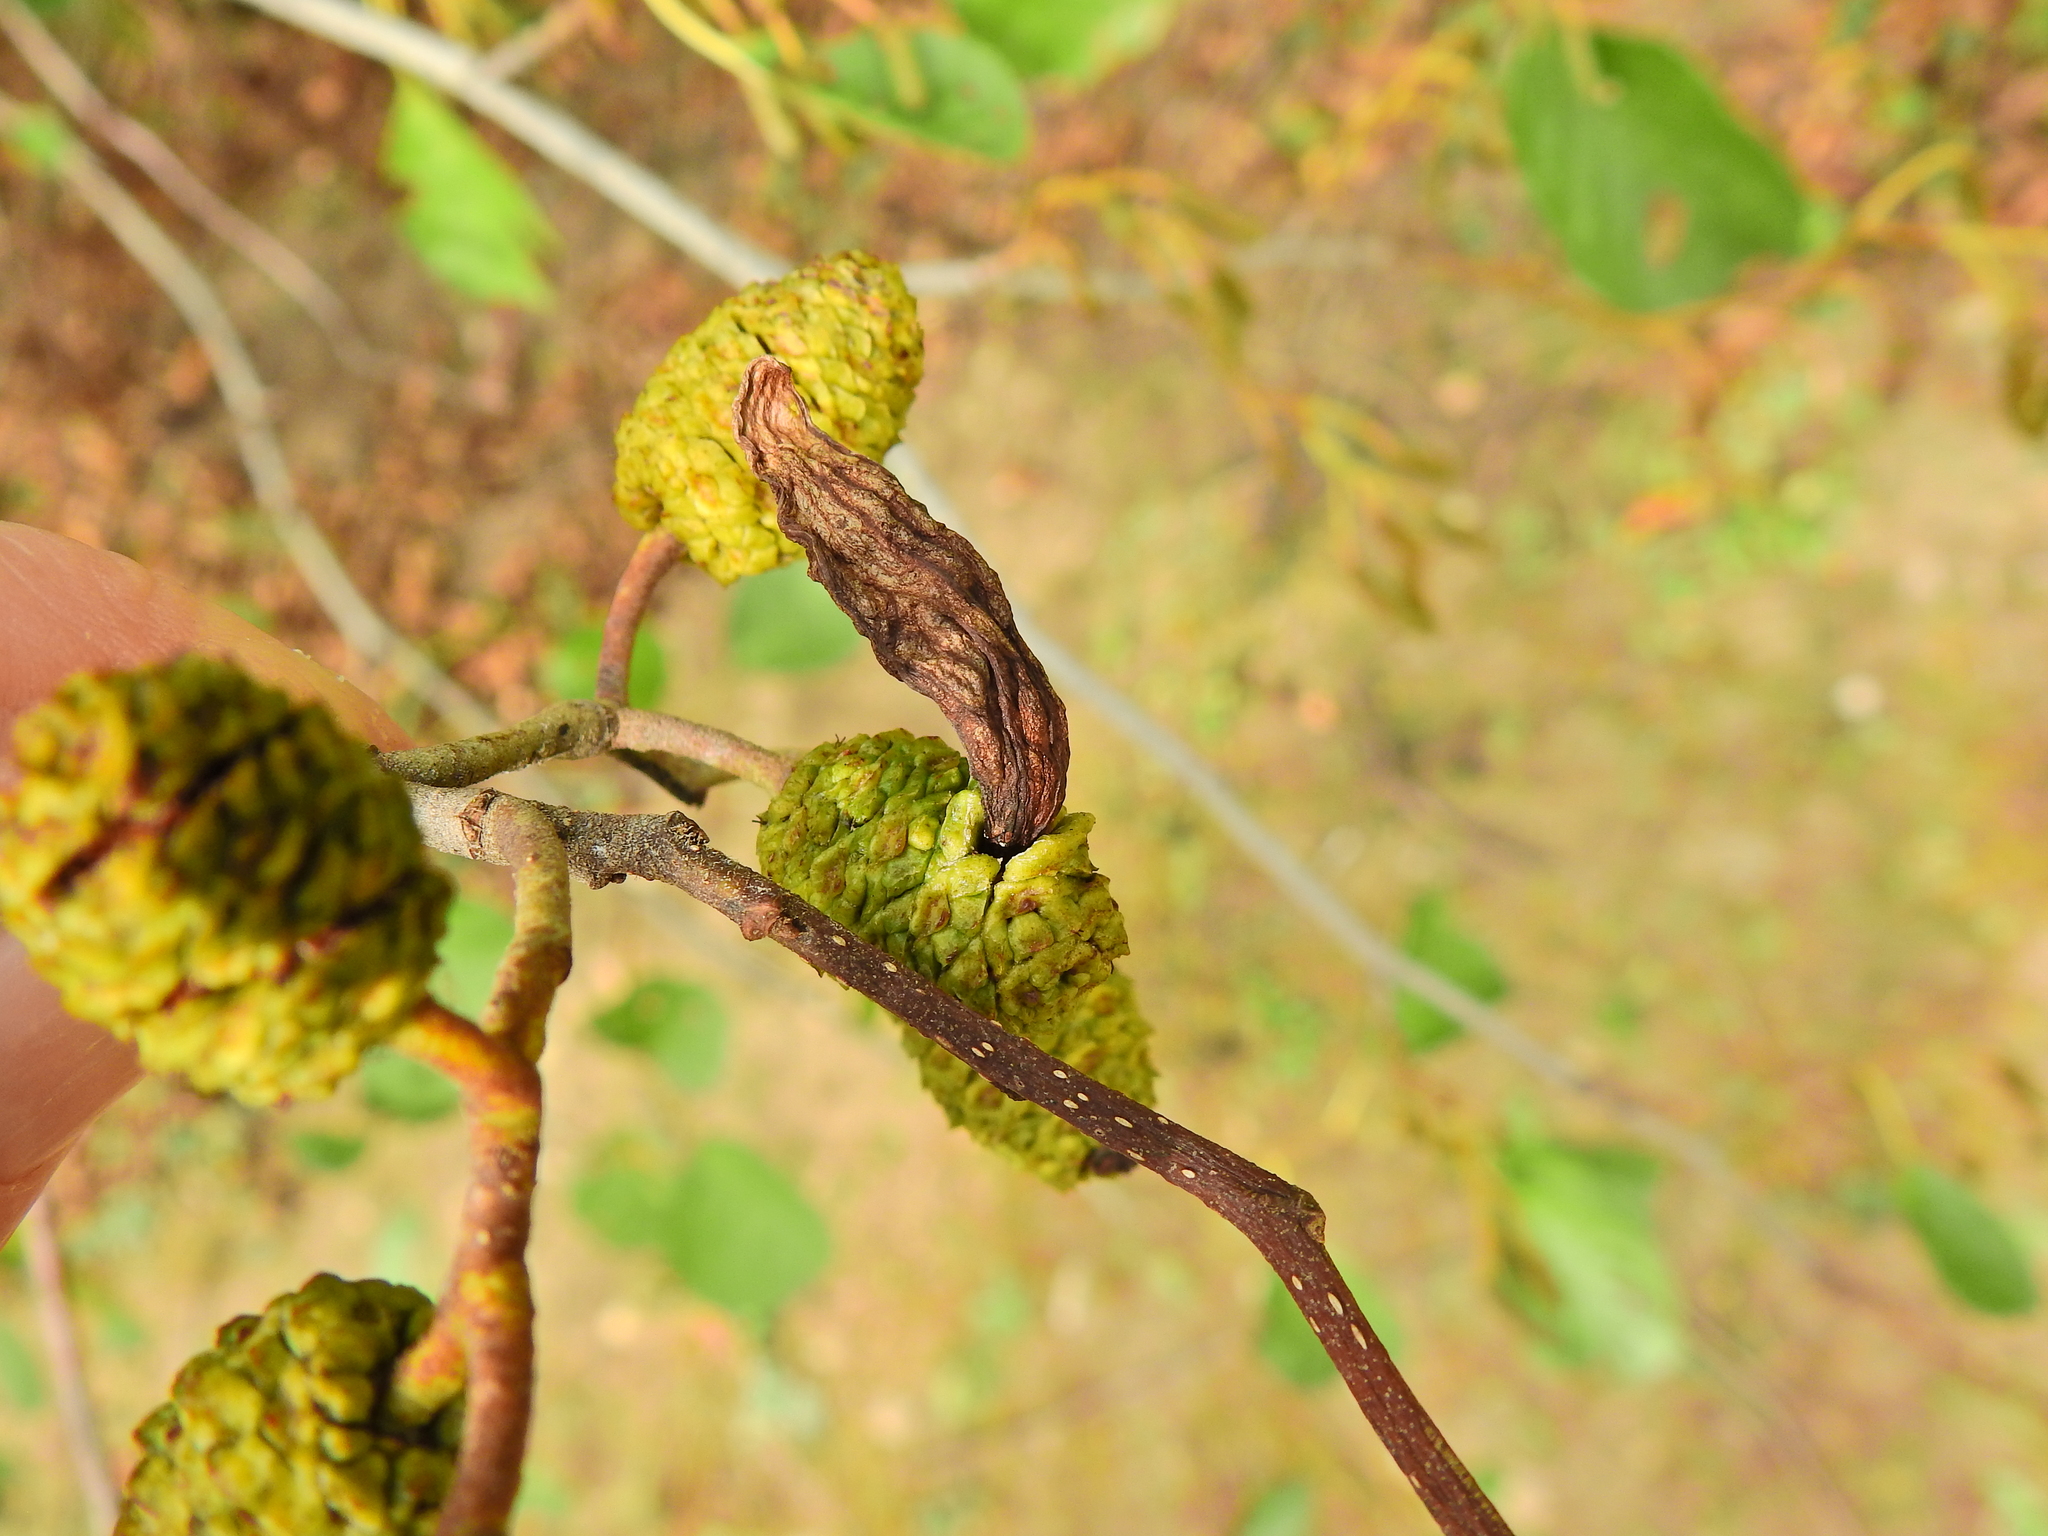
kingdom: Fungi
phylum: Ascomycota
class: Taphrinomycetes
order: Taphrinales
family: Taphrinaceae
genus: Taphrina
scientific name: Taphrina alni
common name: Alder tongue
